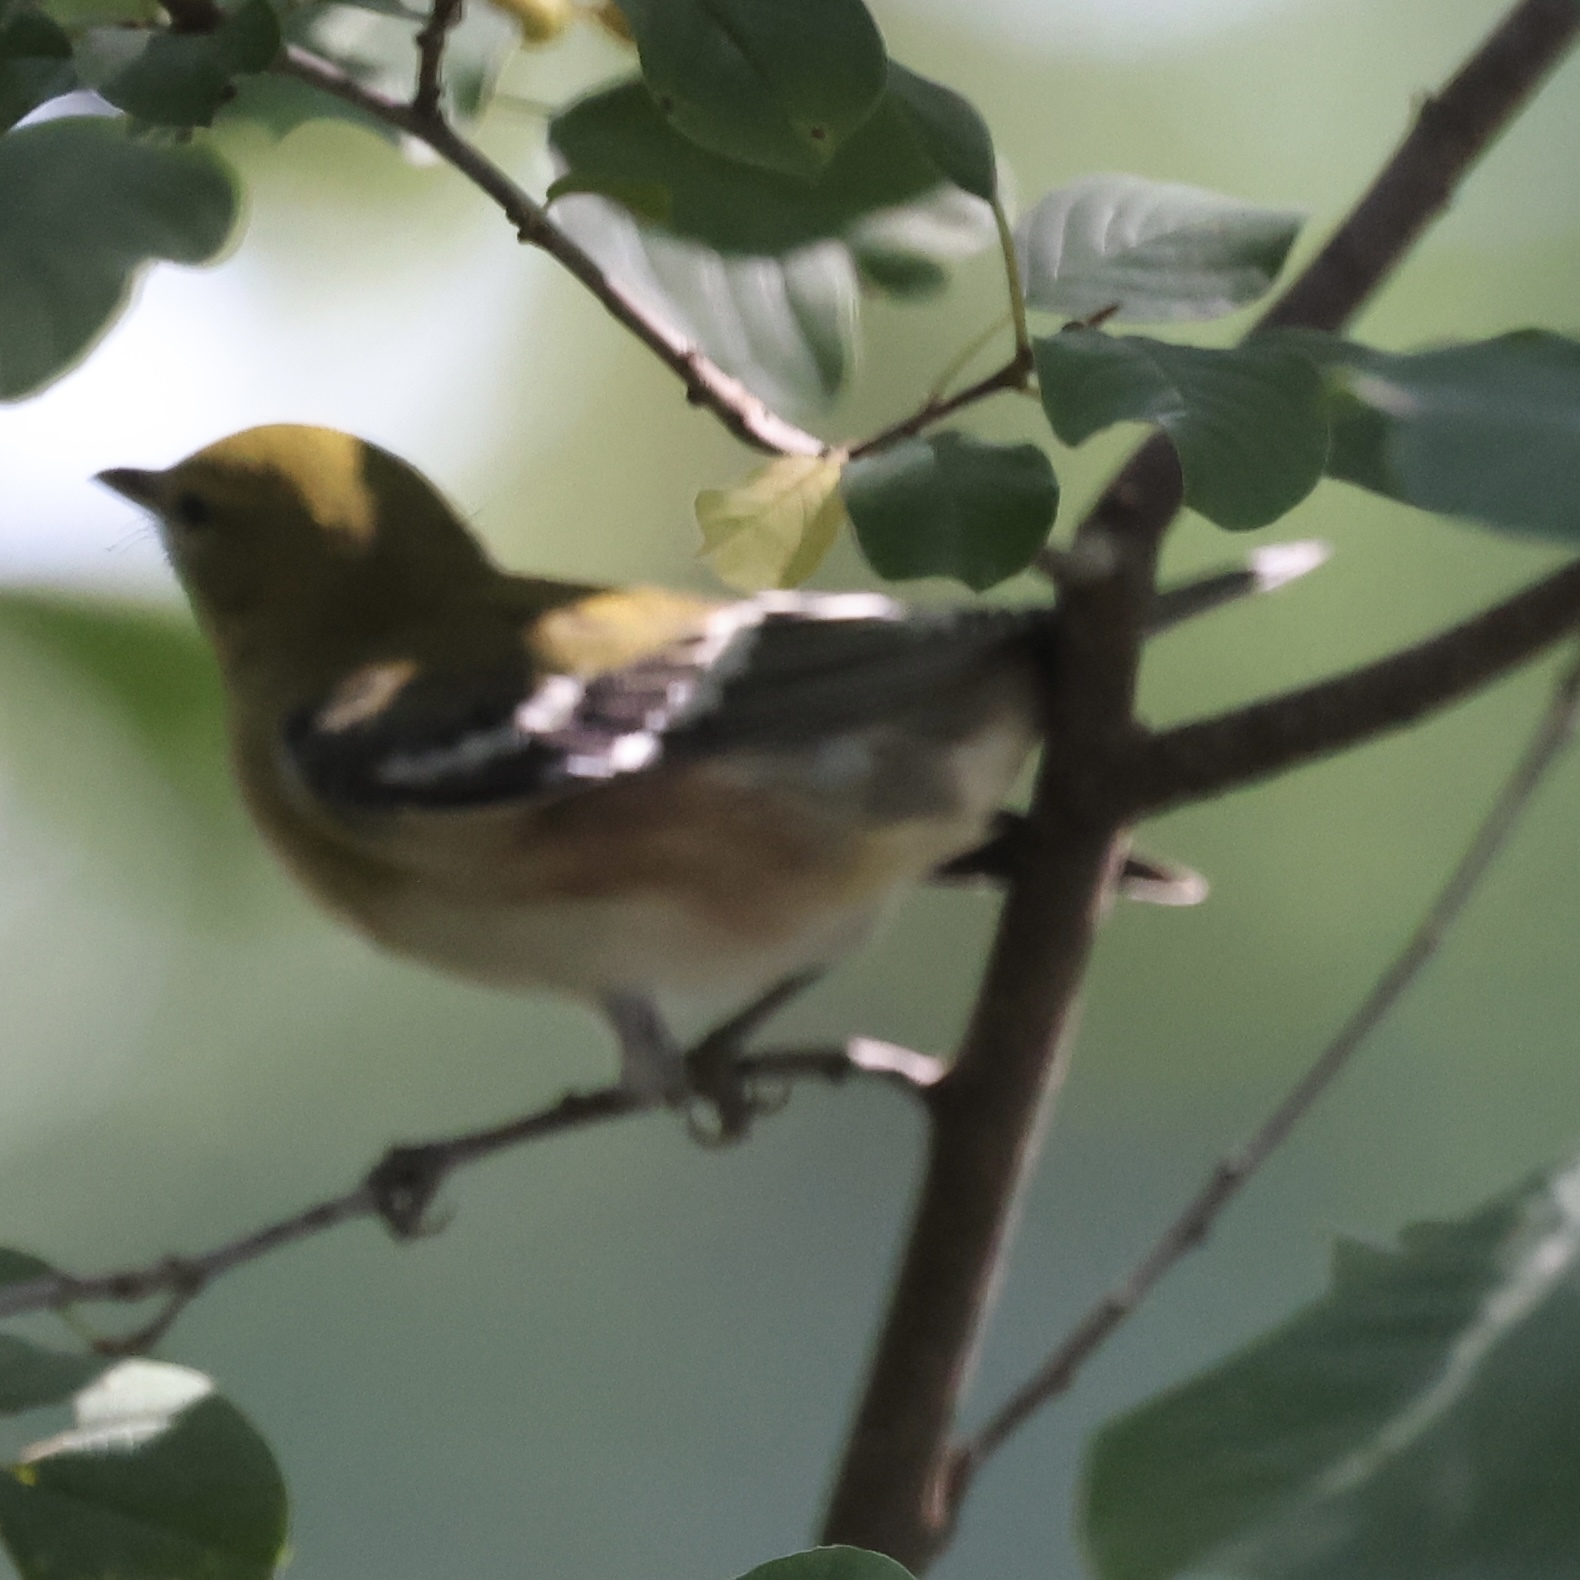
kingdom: Animalia
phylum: Chordata
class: Aves
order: Passeriformes
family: Parulidae
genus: Setophaga
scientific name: Setophaga castanea
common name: Bay-breasted warbler
